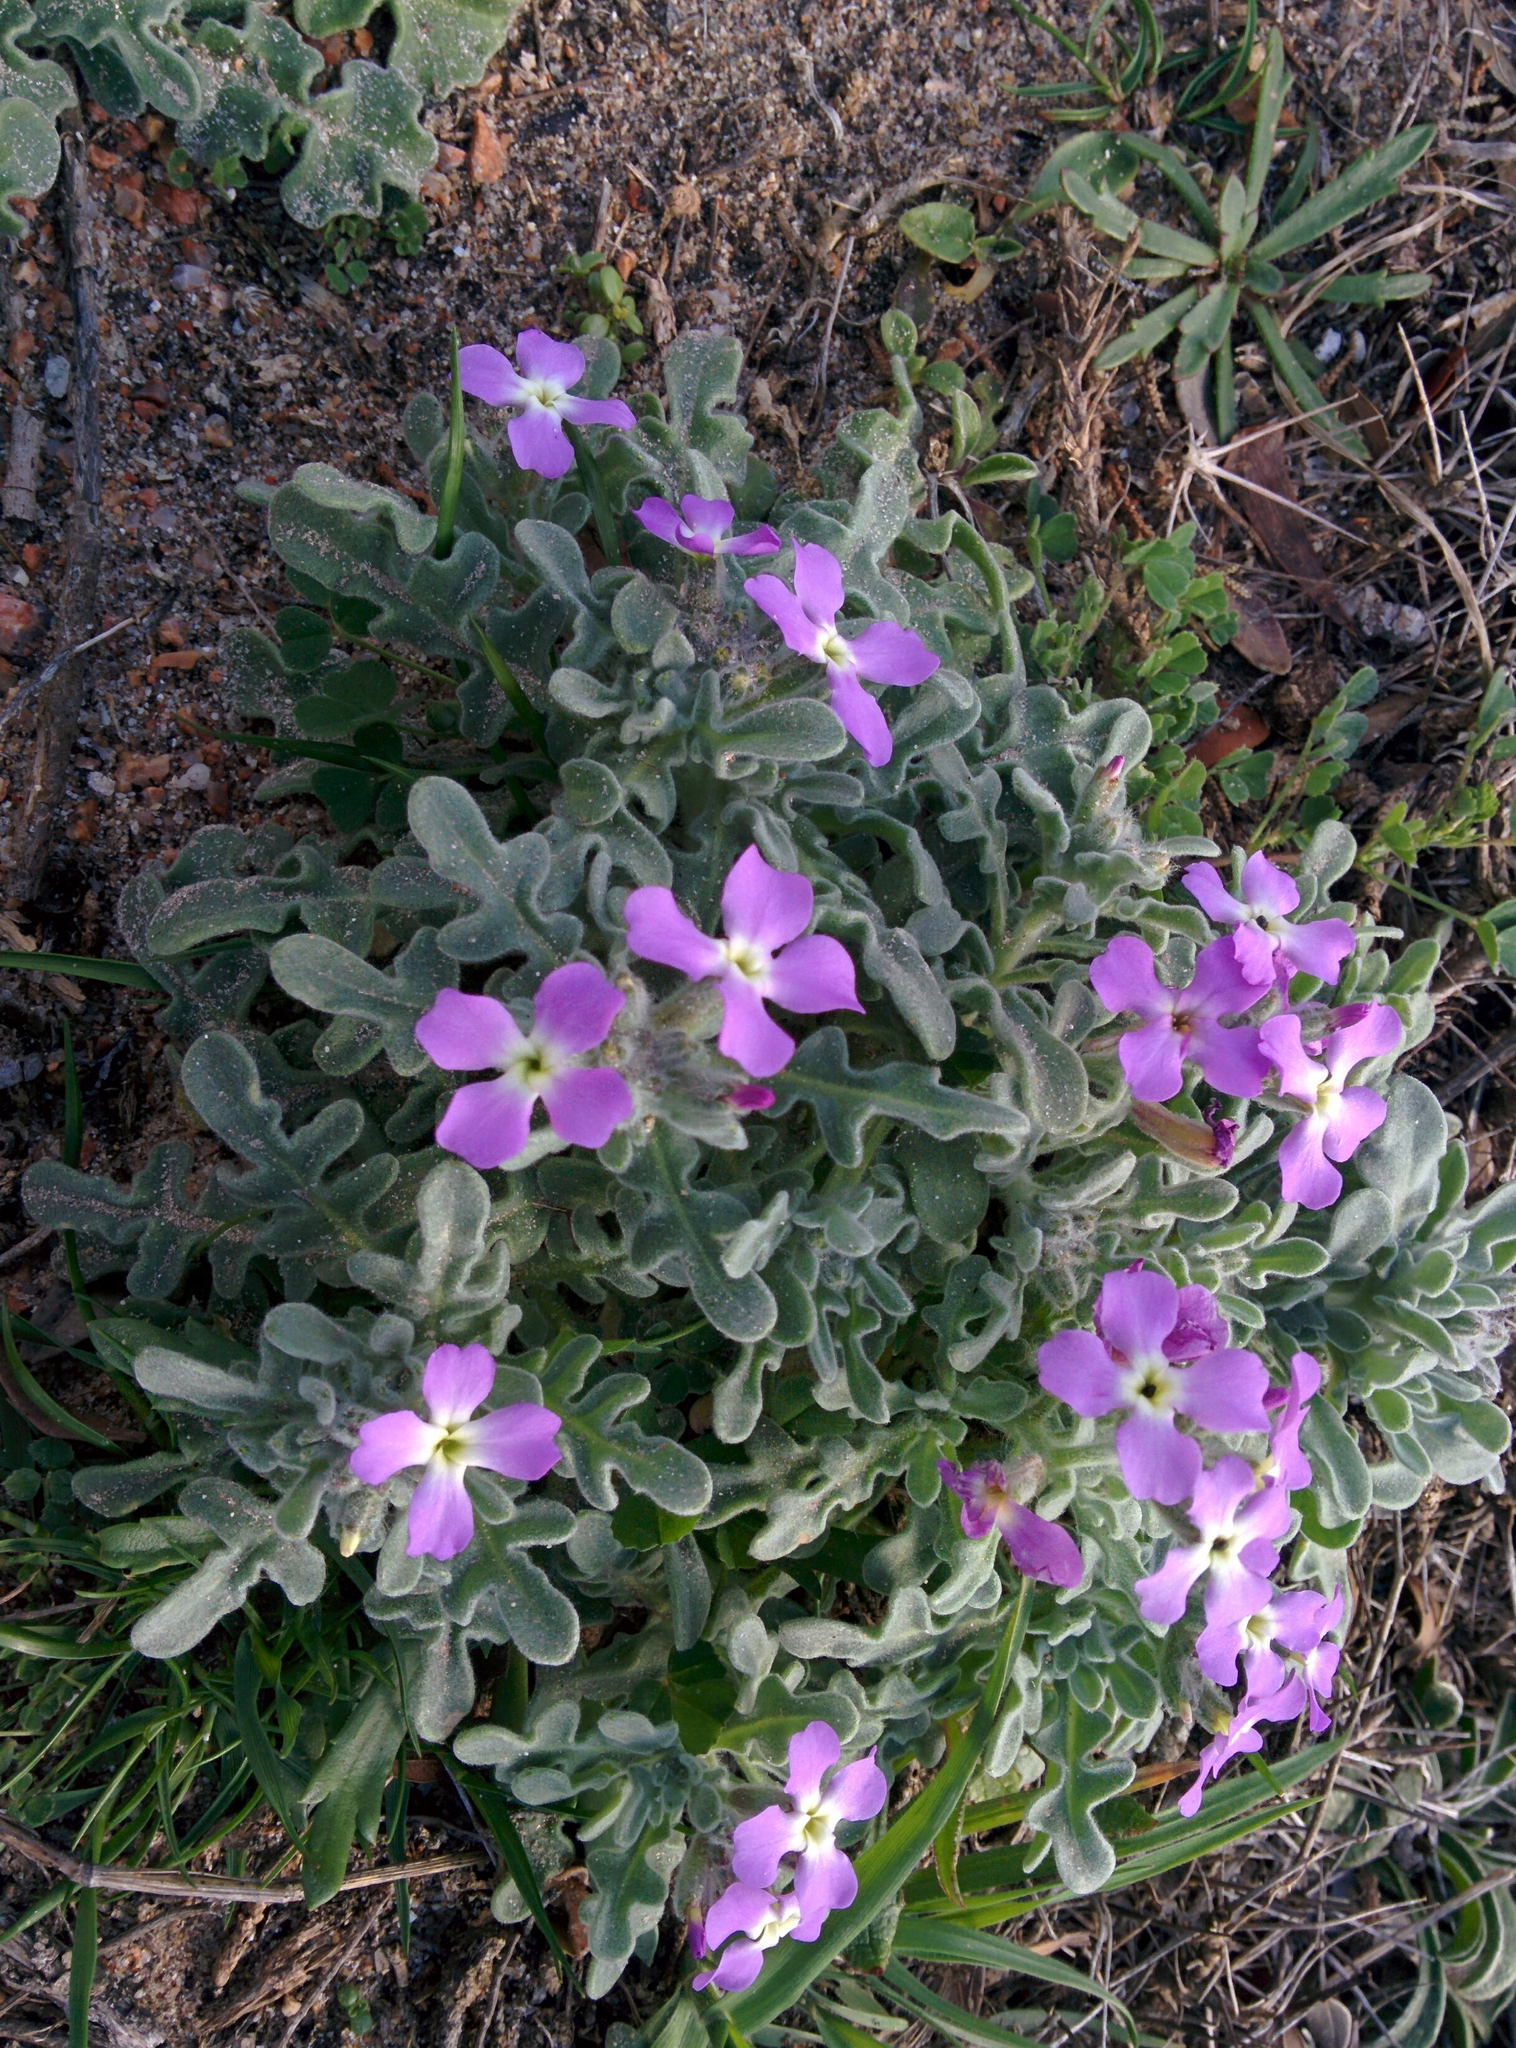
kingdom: Plantae
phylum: Tracheophyta
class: Magnoliopsida
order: Brassicales
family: Brassicaceae
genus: Matthiola
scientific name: Matthiola tricuspidata
